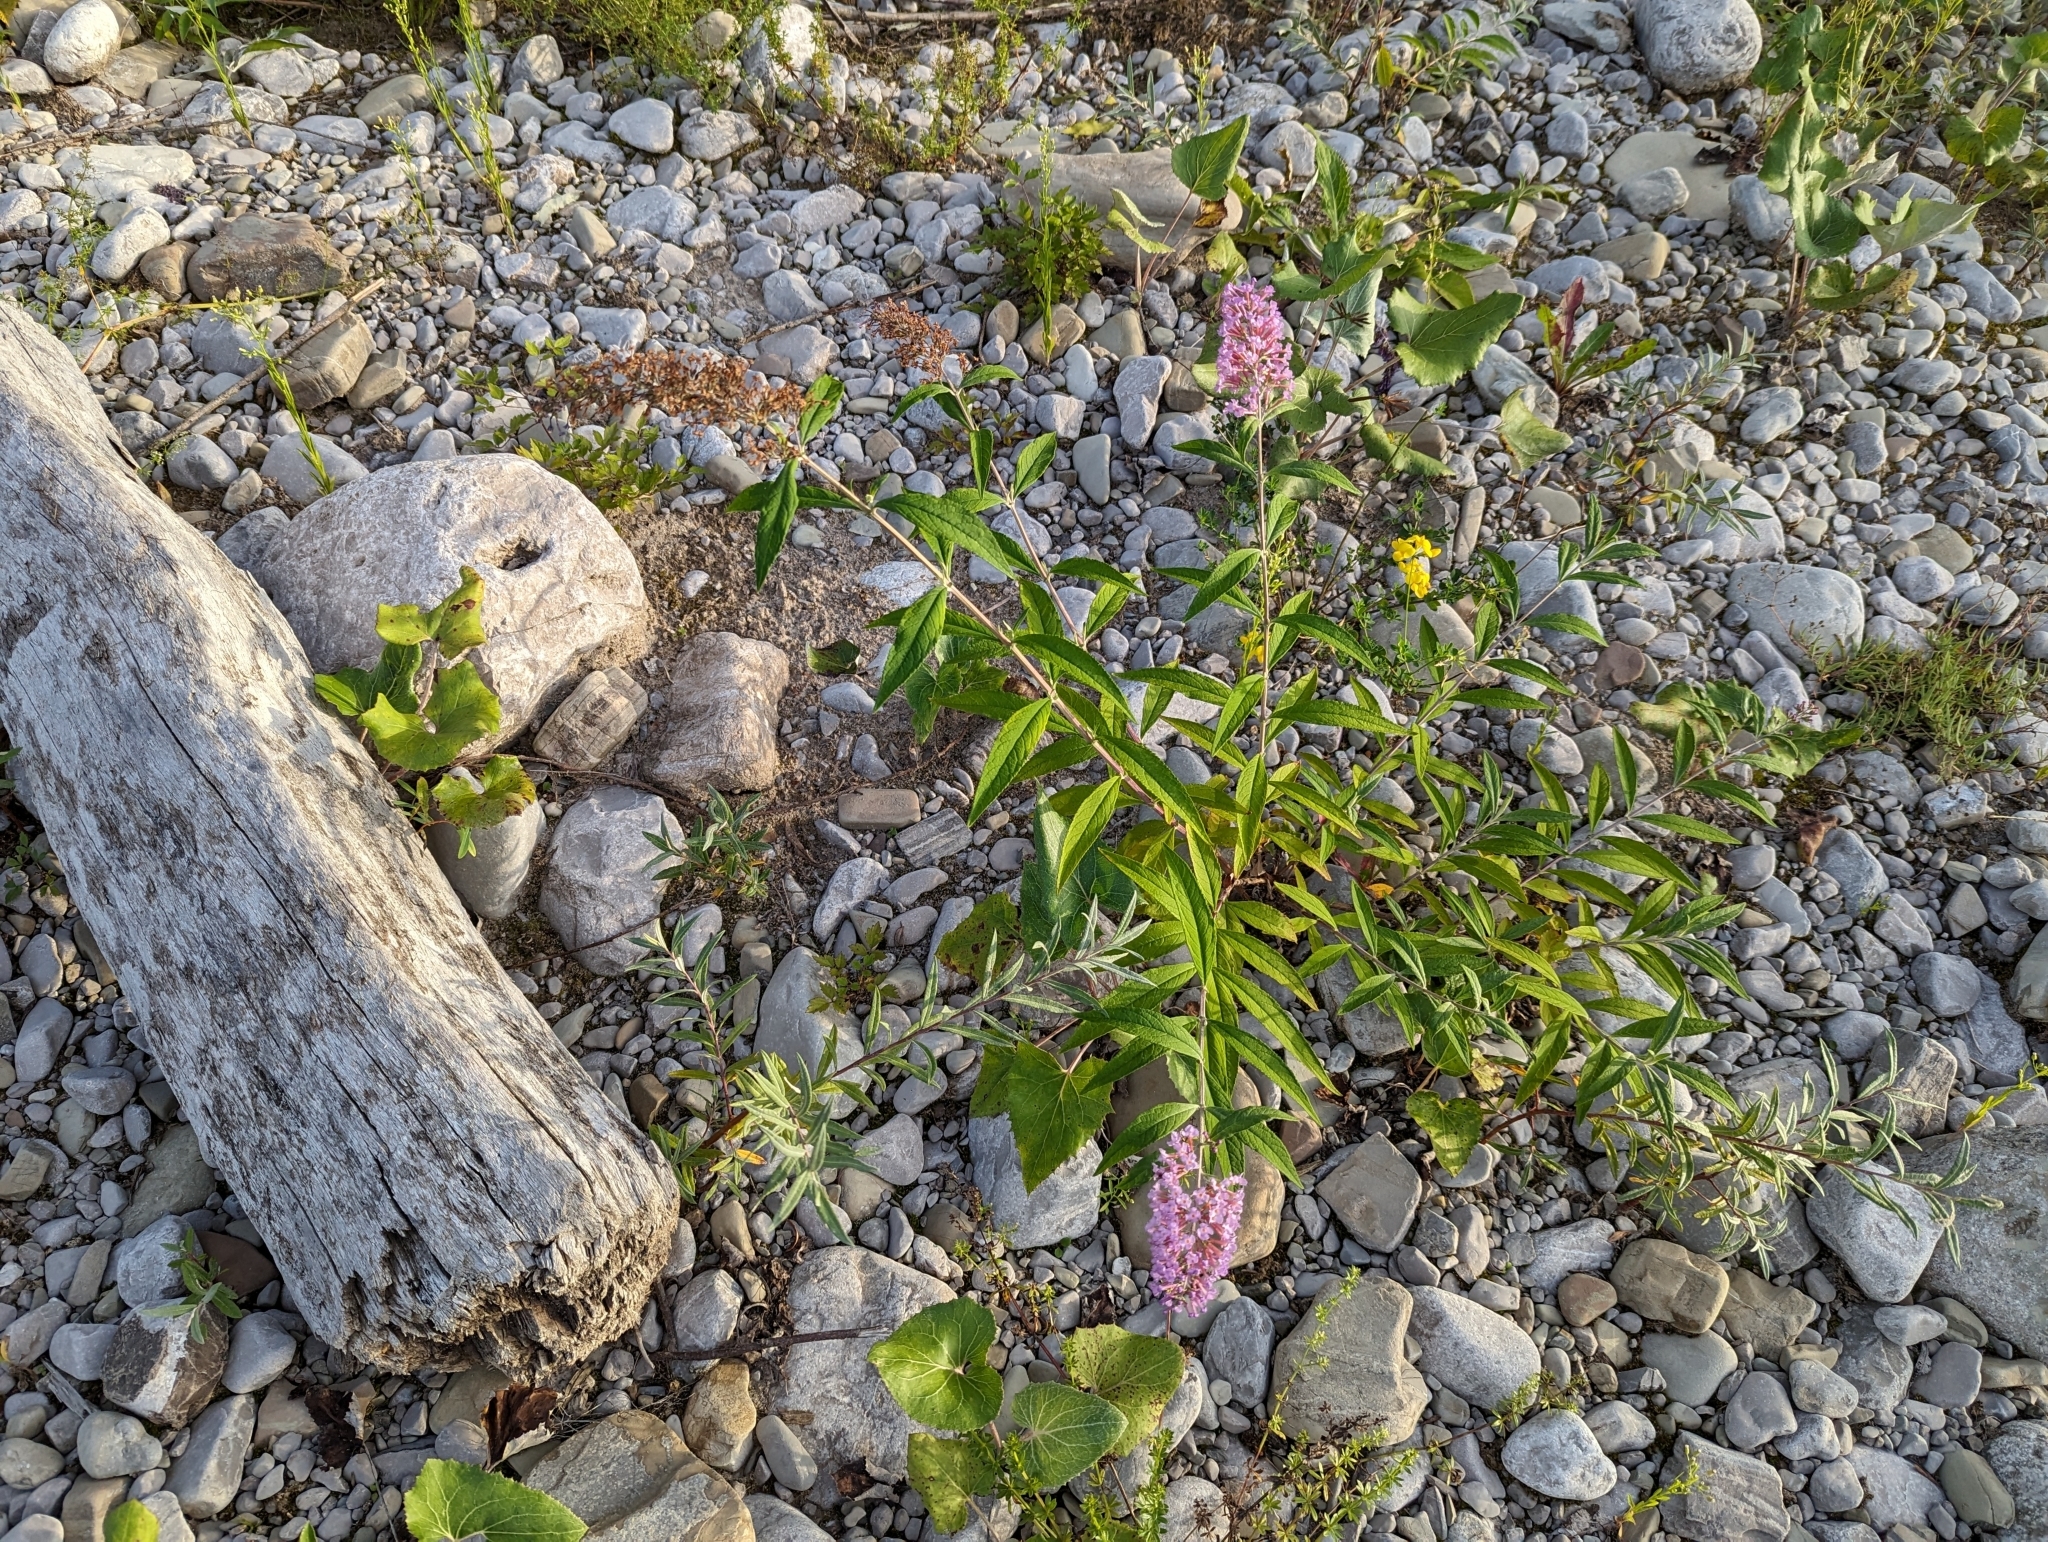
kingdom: Plantae
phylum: Tracheophyta
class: Magnoliopsida
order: Lamiales
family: Scrophulariaceae
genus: Buddleja
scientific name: Buddleja davidii
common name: Butterfly-bush
